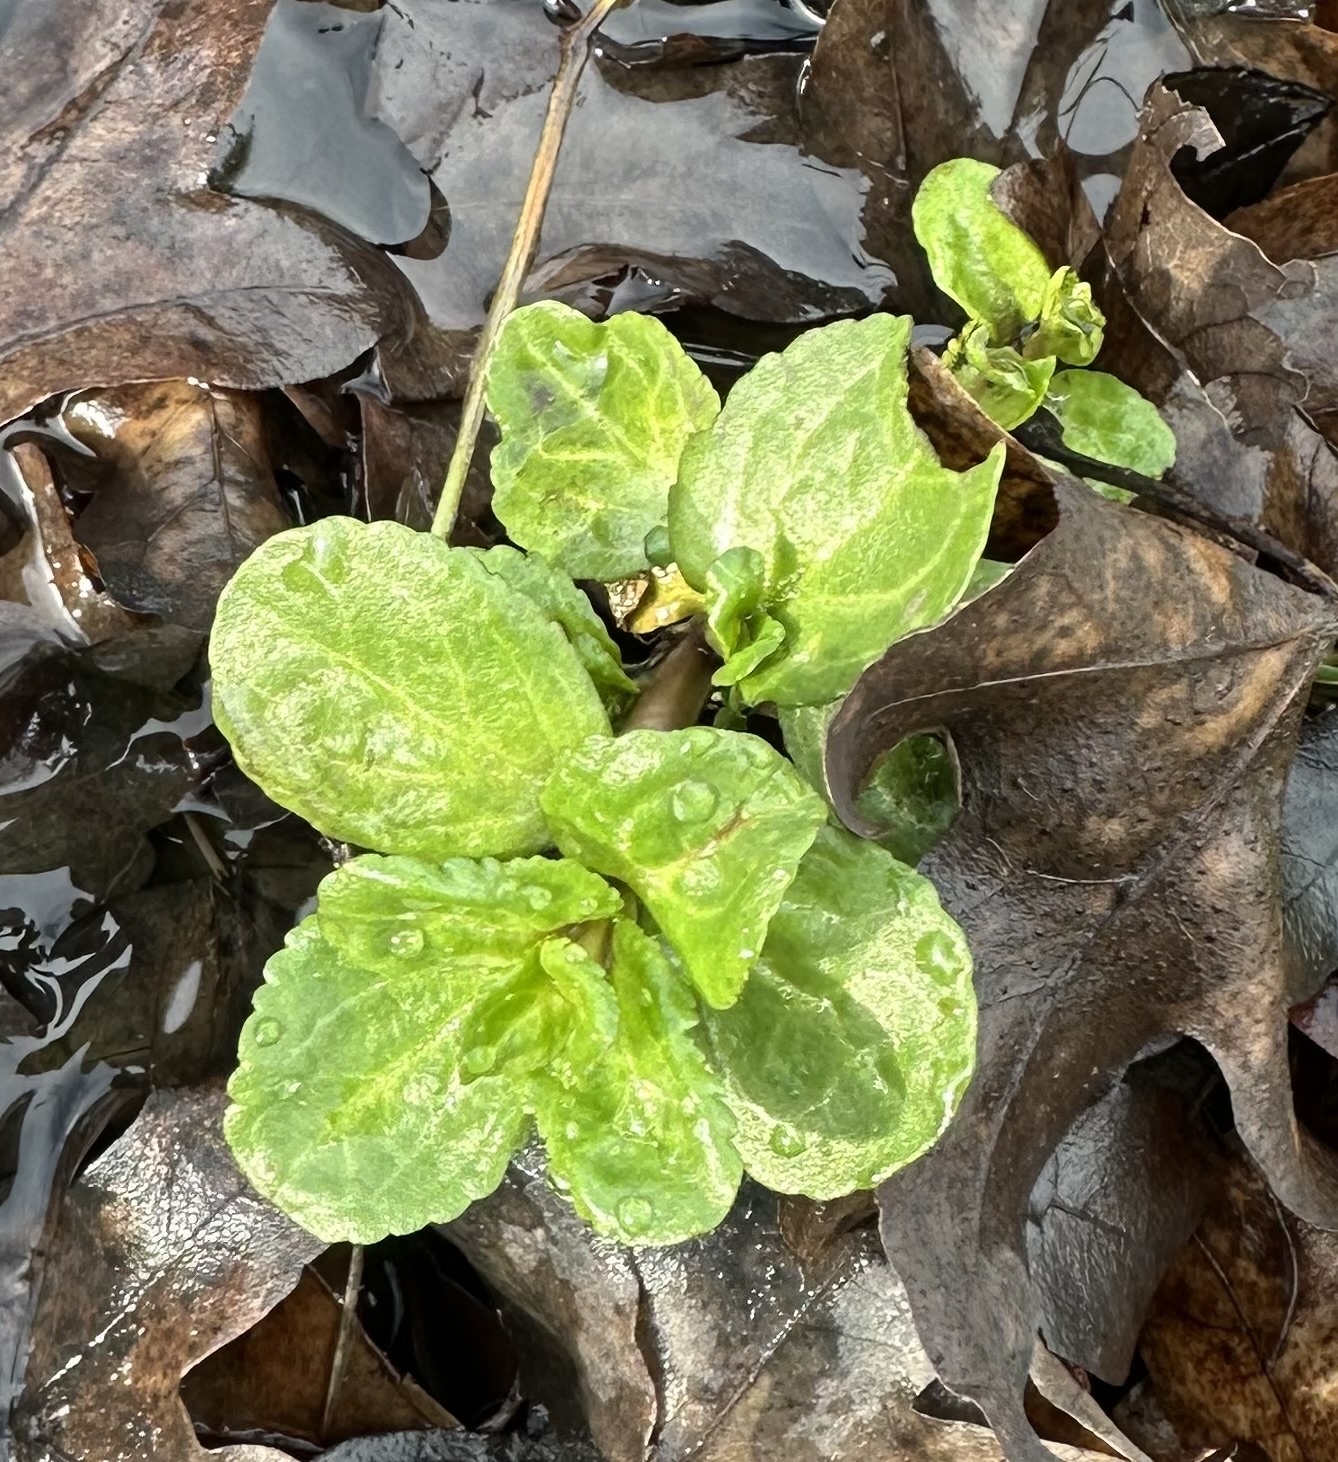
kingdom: Plantae
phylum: Tracheophyta
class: Magnoliopsida
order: Lamiales
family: Plantaginaceae
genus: Veronica
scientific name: Veronica beccabunga
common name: Brooklime
